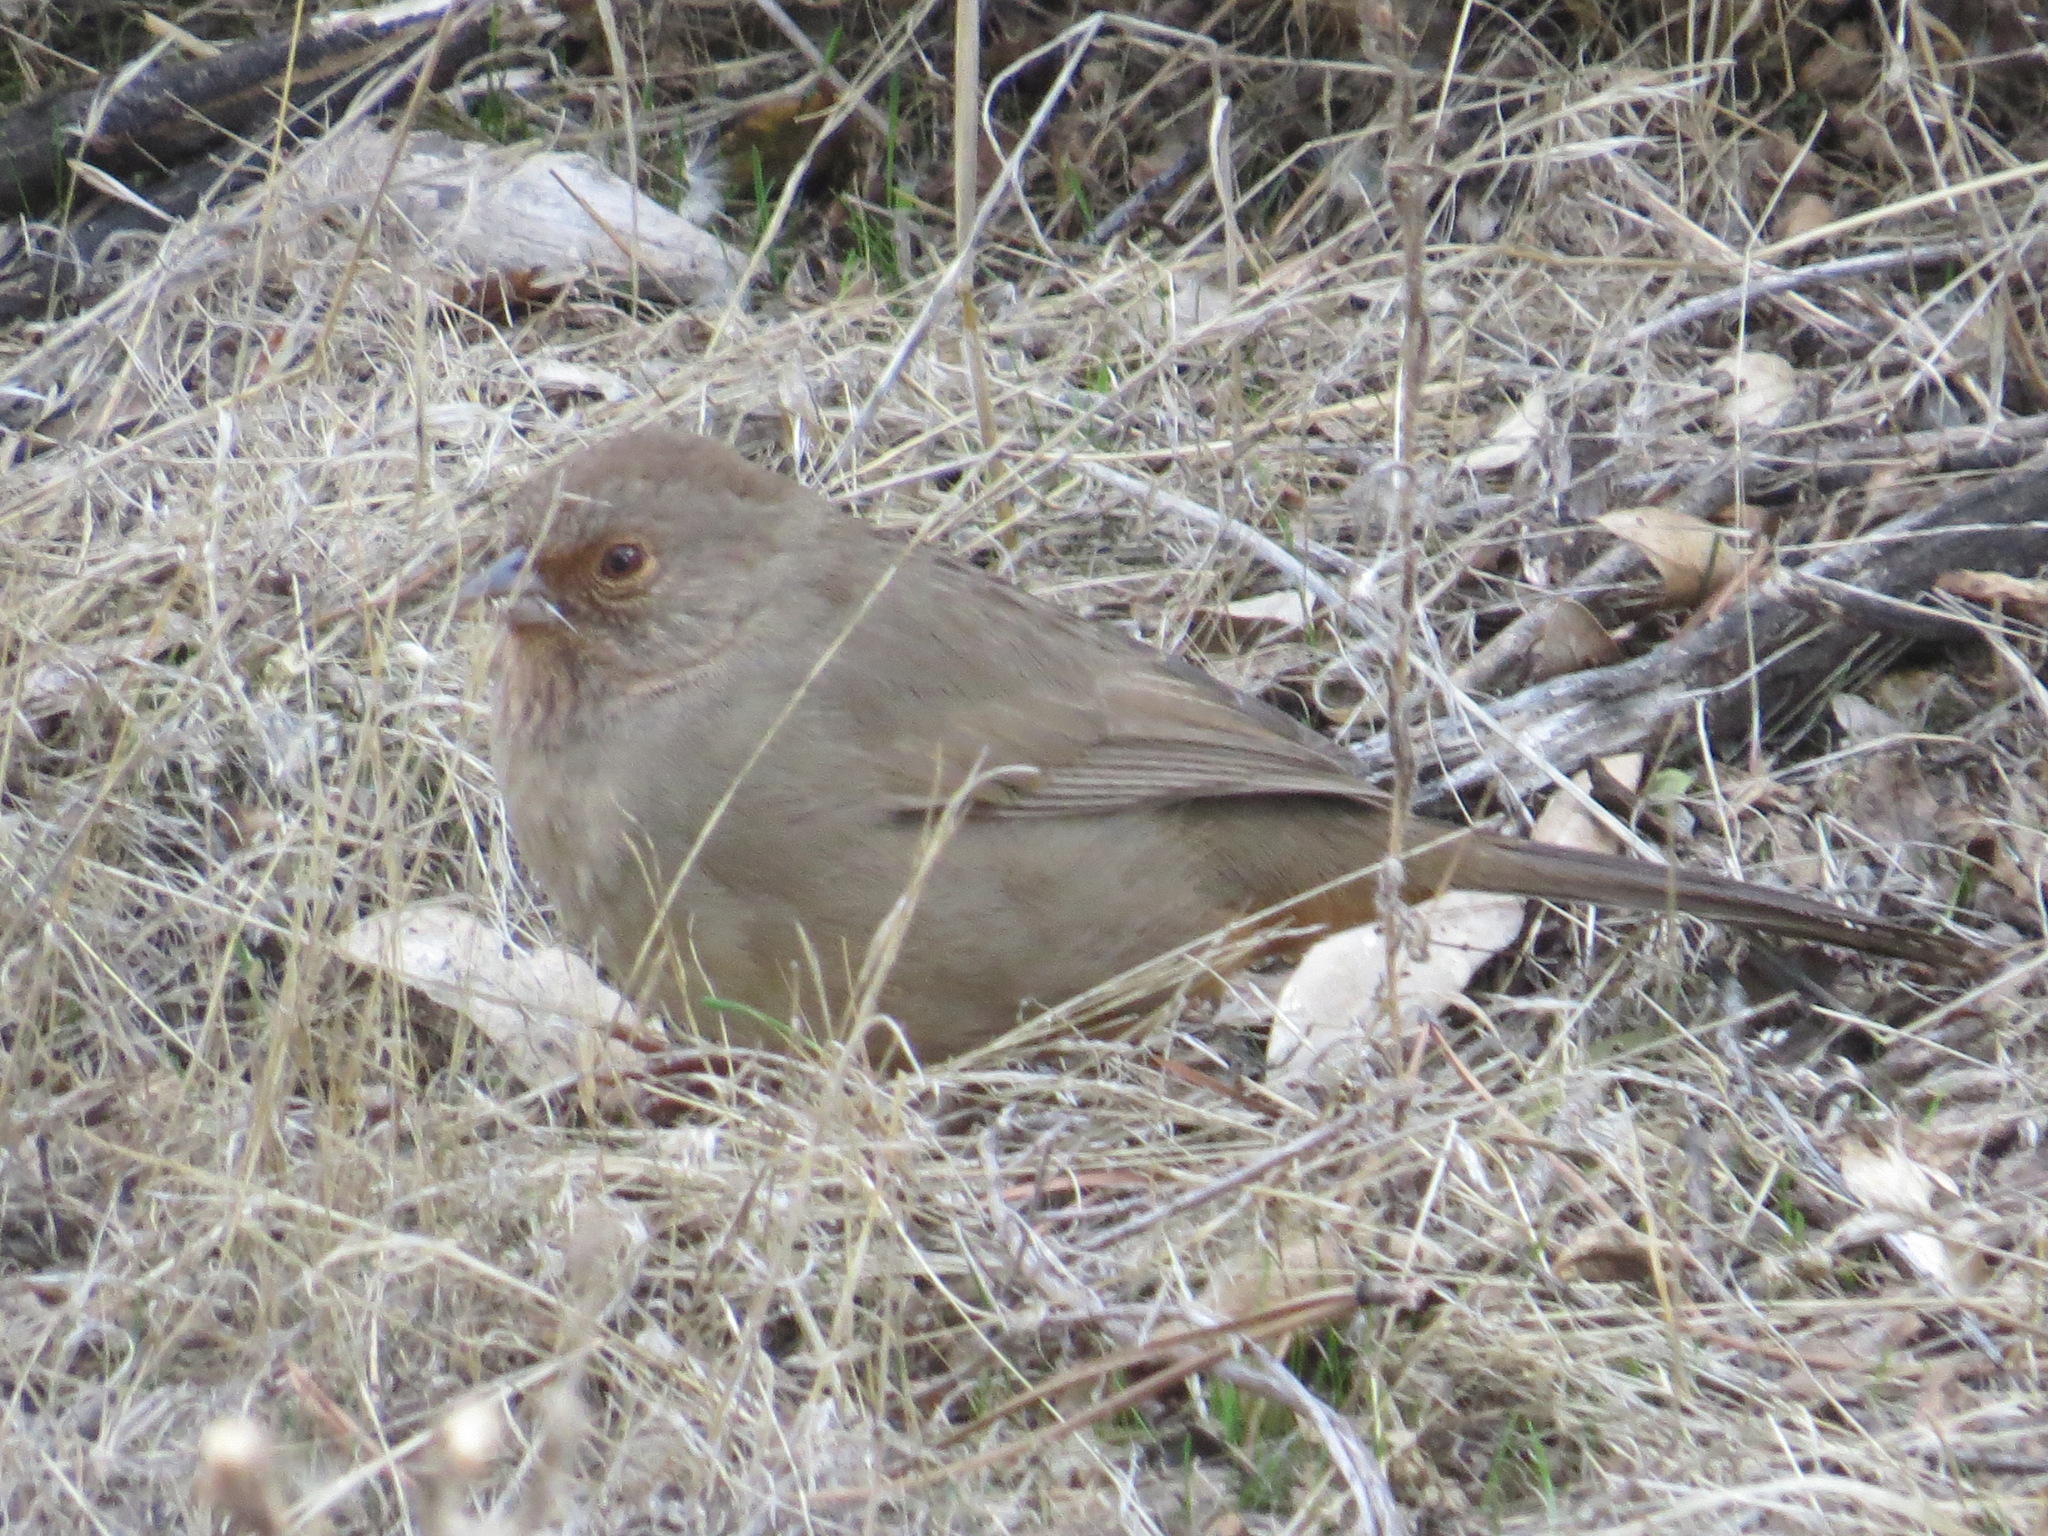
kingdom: Animalia
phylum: Chordata
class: Aves
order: Passeriformes
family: Passerellidae
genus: Melozone
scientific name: Melozone crissalis
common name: California towhee
